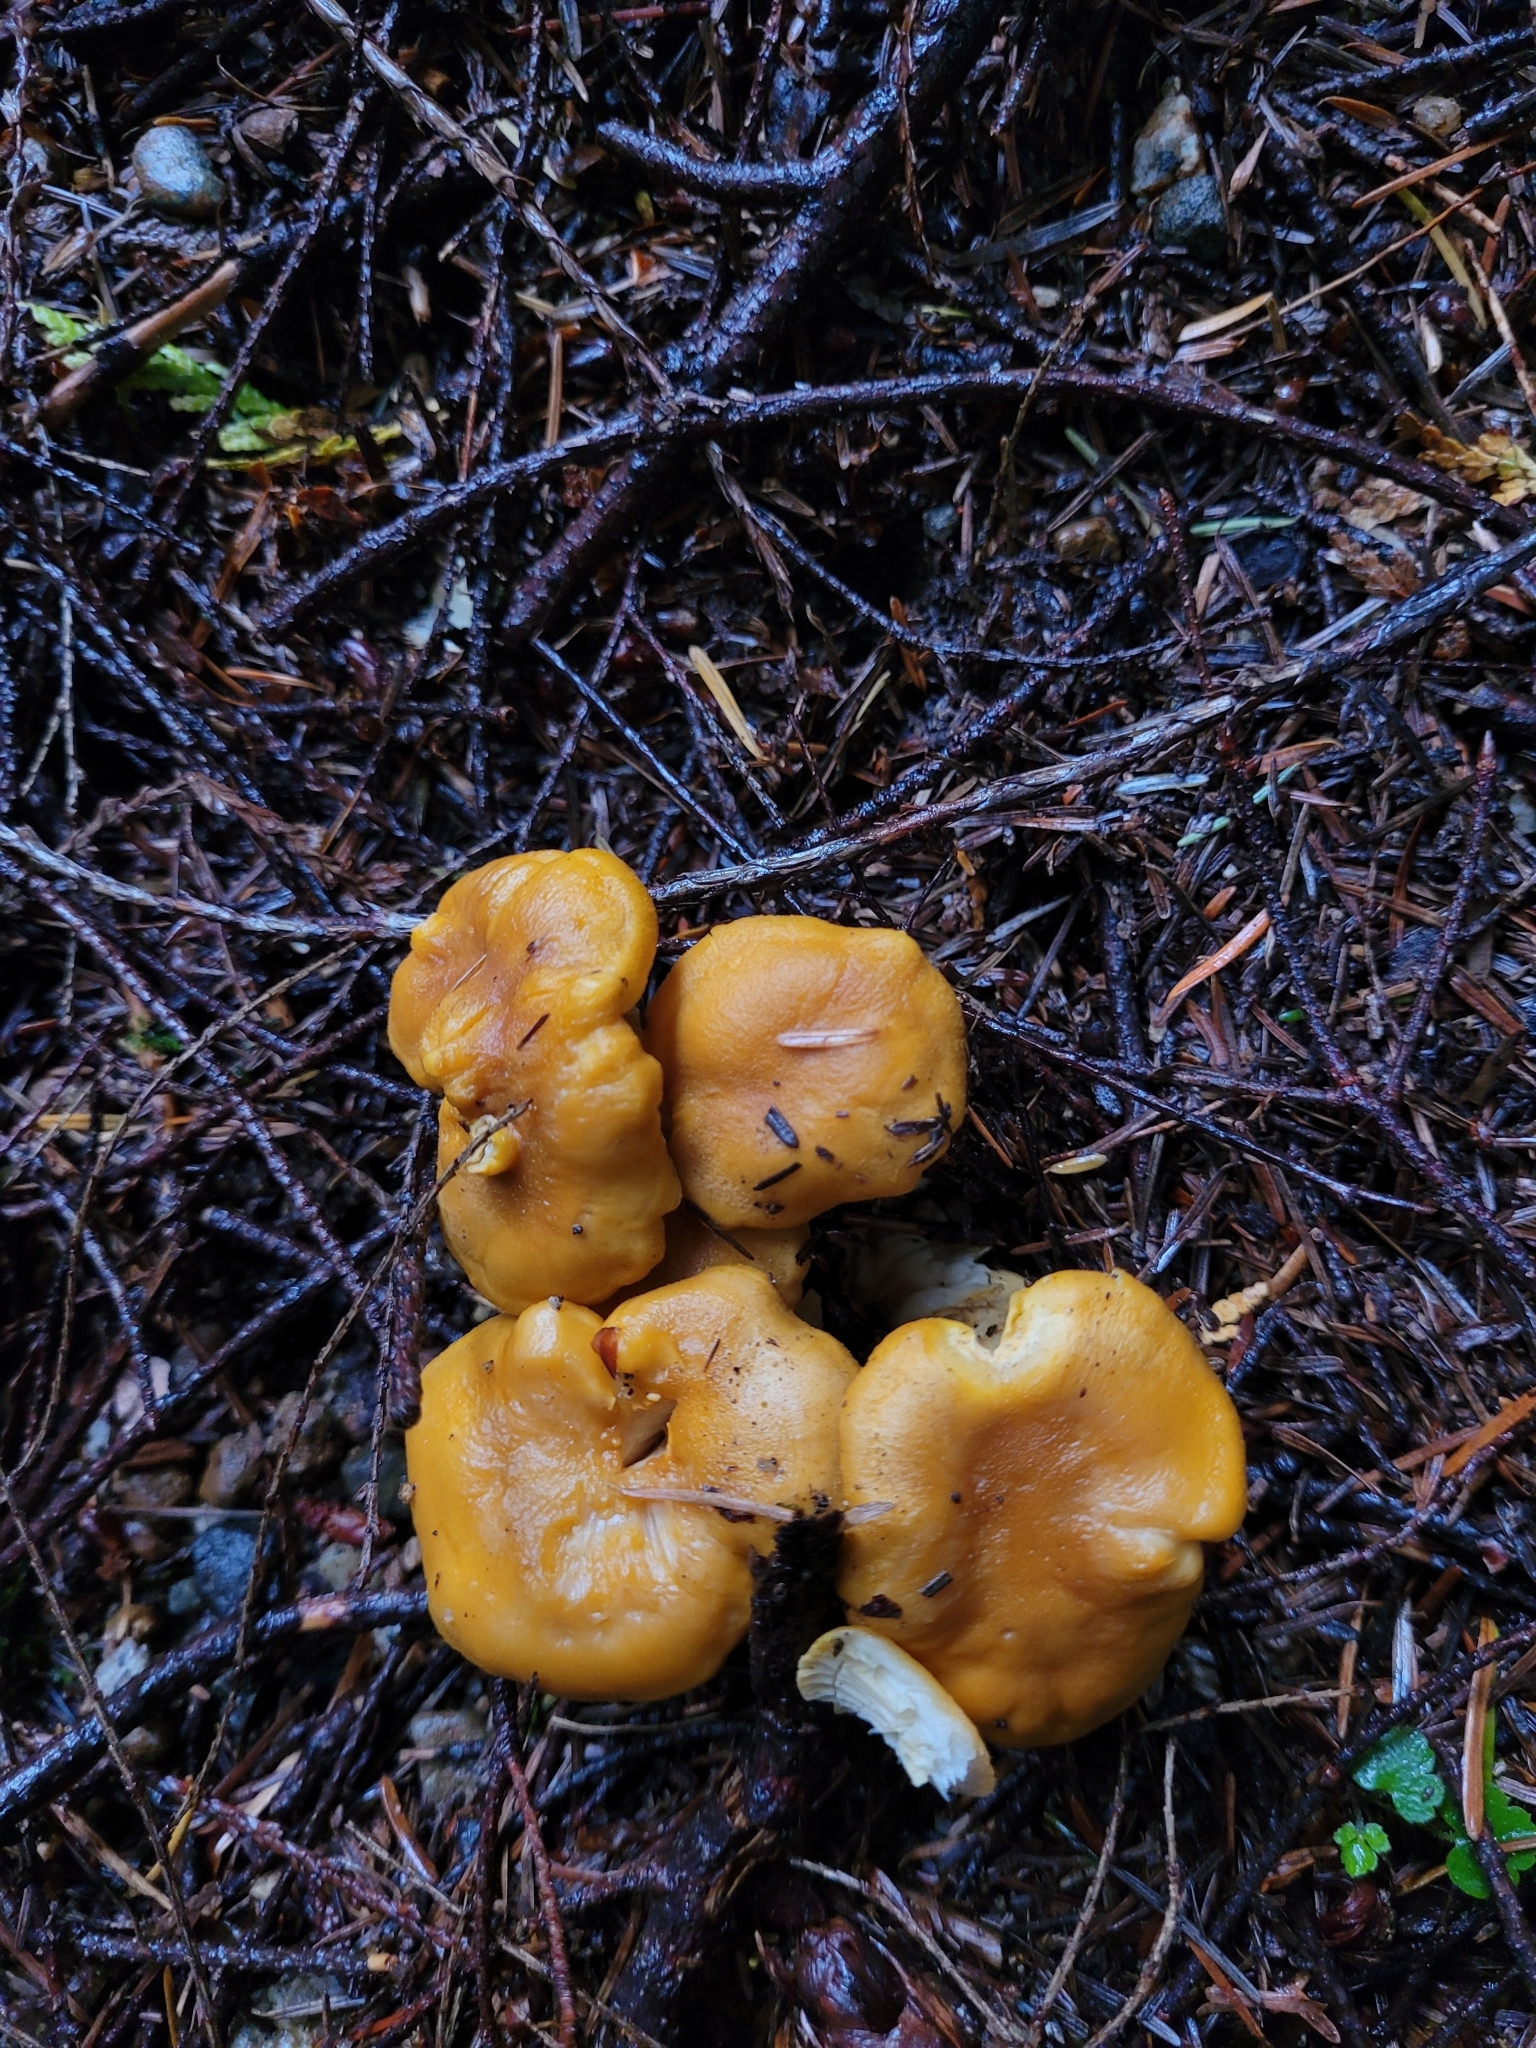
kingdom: Fungi
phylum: Basidiomycota
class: Agaricomycetes
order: Cantharellales
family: Hydnaceae
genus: Cantharellus
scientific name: Cantharellus formosus
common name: Pacific golden chanterelle
